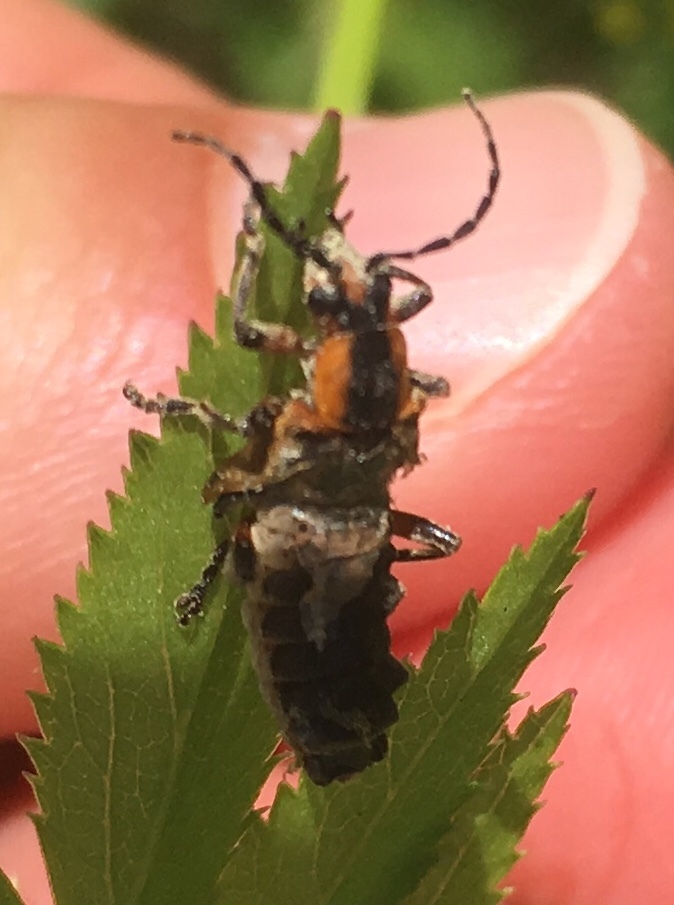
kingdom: Animalia
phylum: Arthropoda
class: Insecta
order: Coleoptera
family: Cantharidae
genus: Chauliognathus
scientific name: Chauliognathus marginatus
